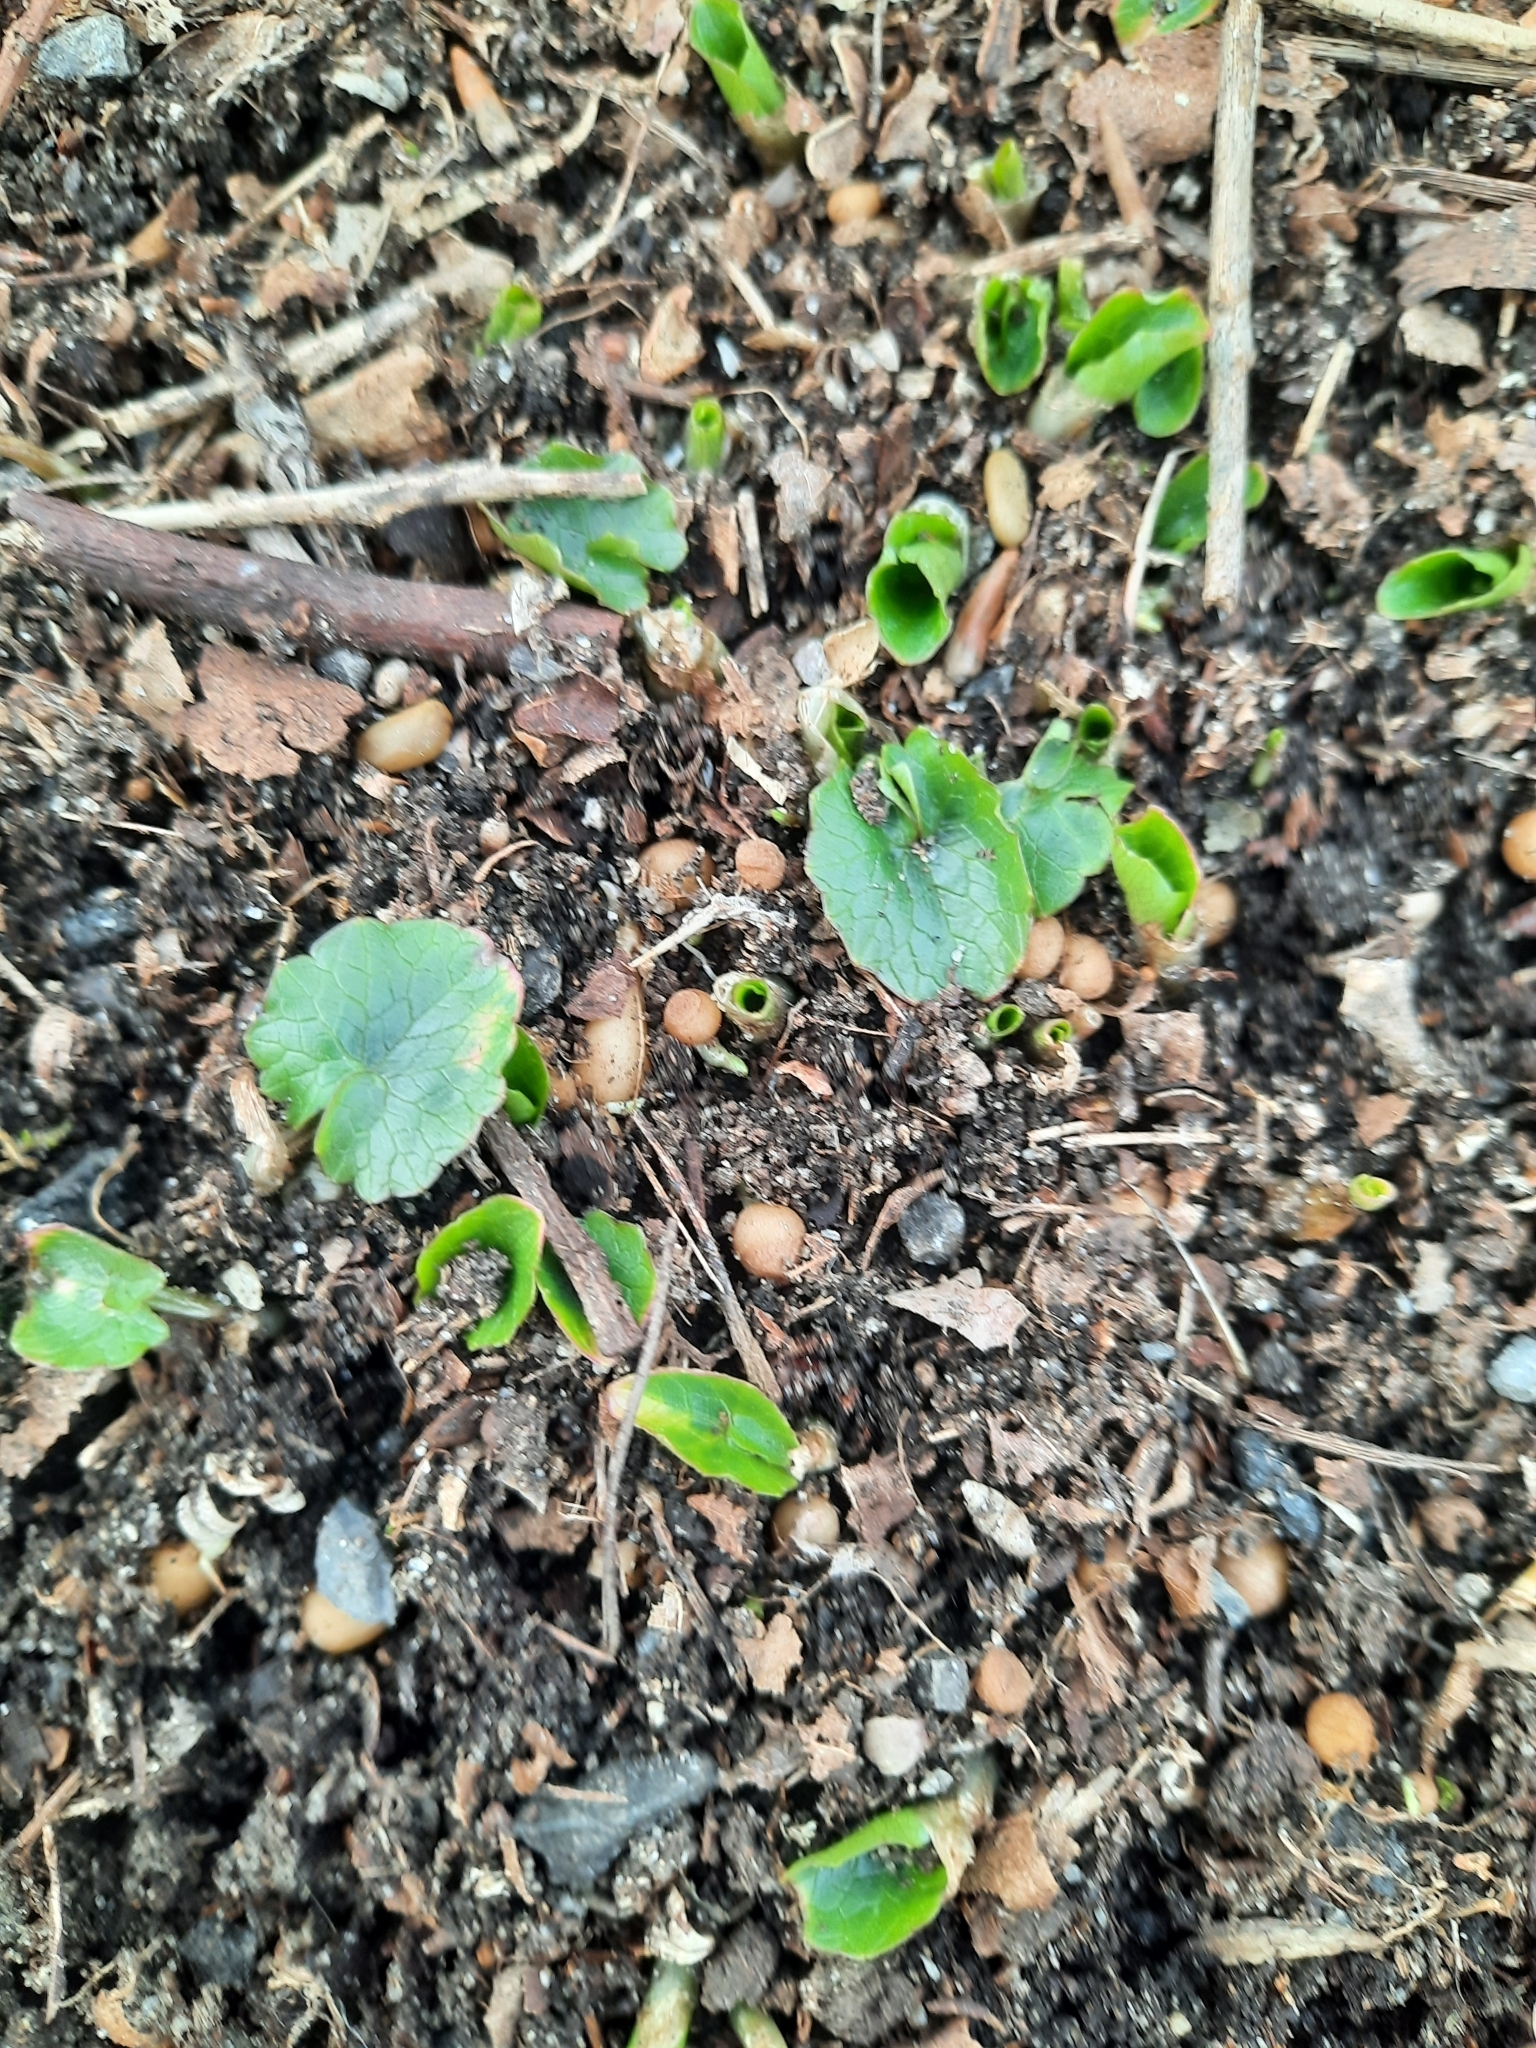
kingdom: Plantae
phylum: Tracheophyta
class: Magnoliopsida
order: Ranunculales
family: Ranunculaceae
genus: Ficaria
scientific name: Ficaria verna
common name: Lesser celandine
